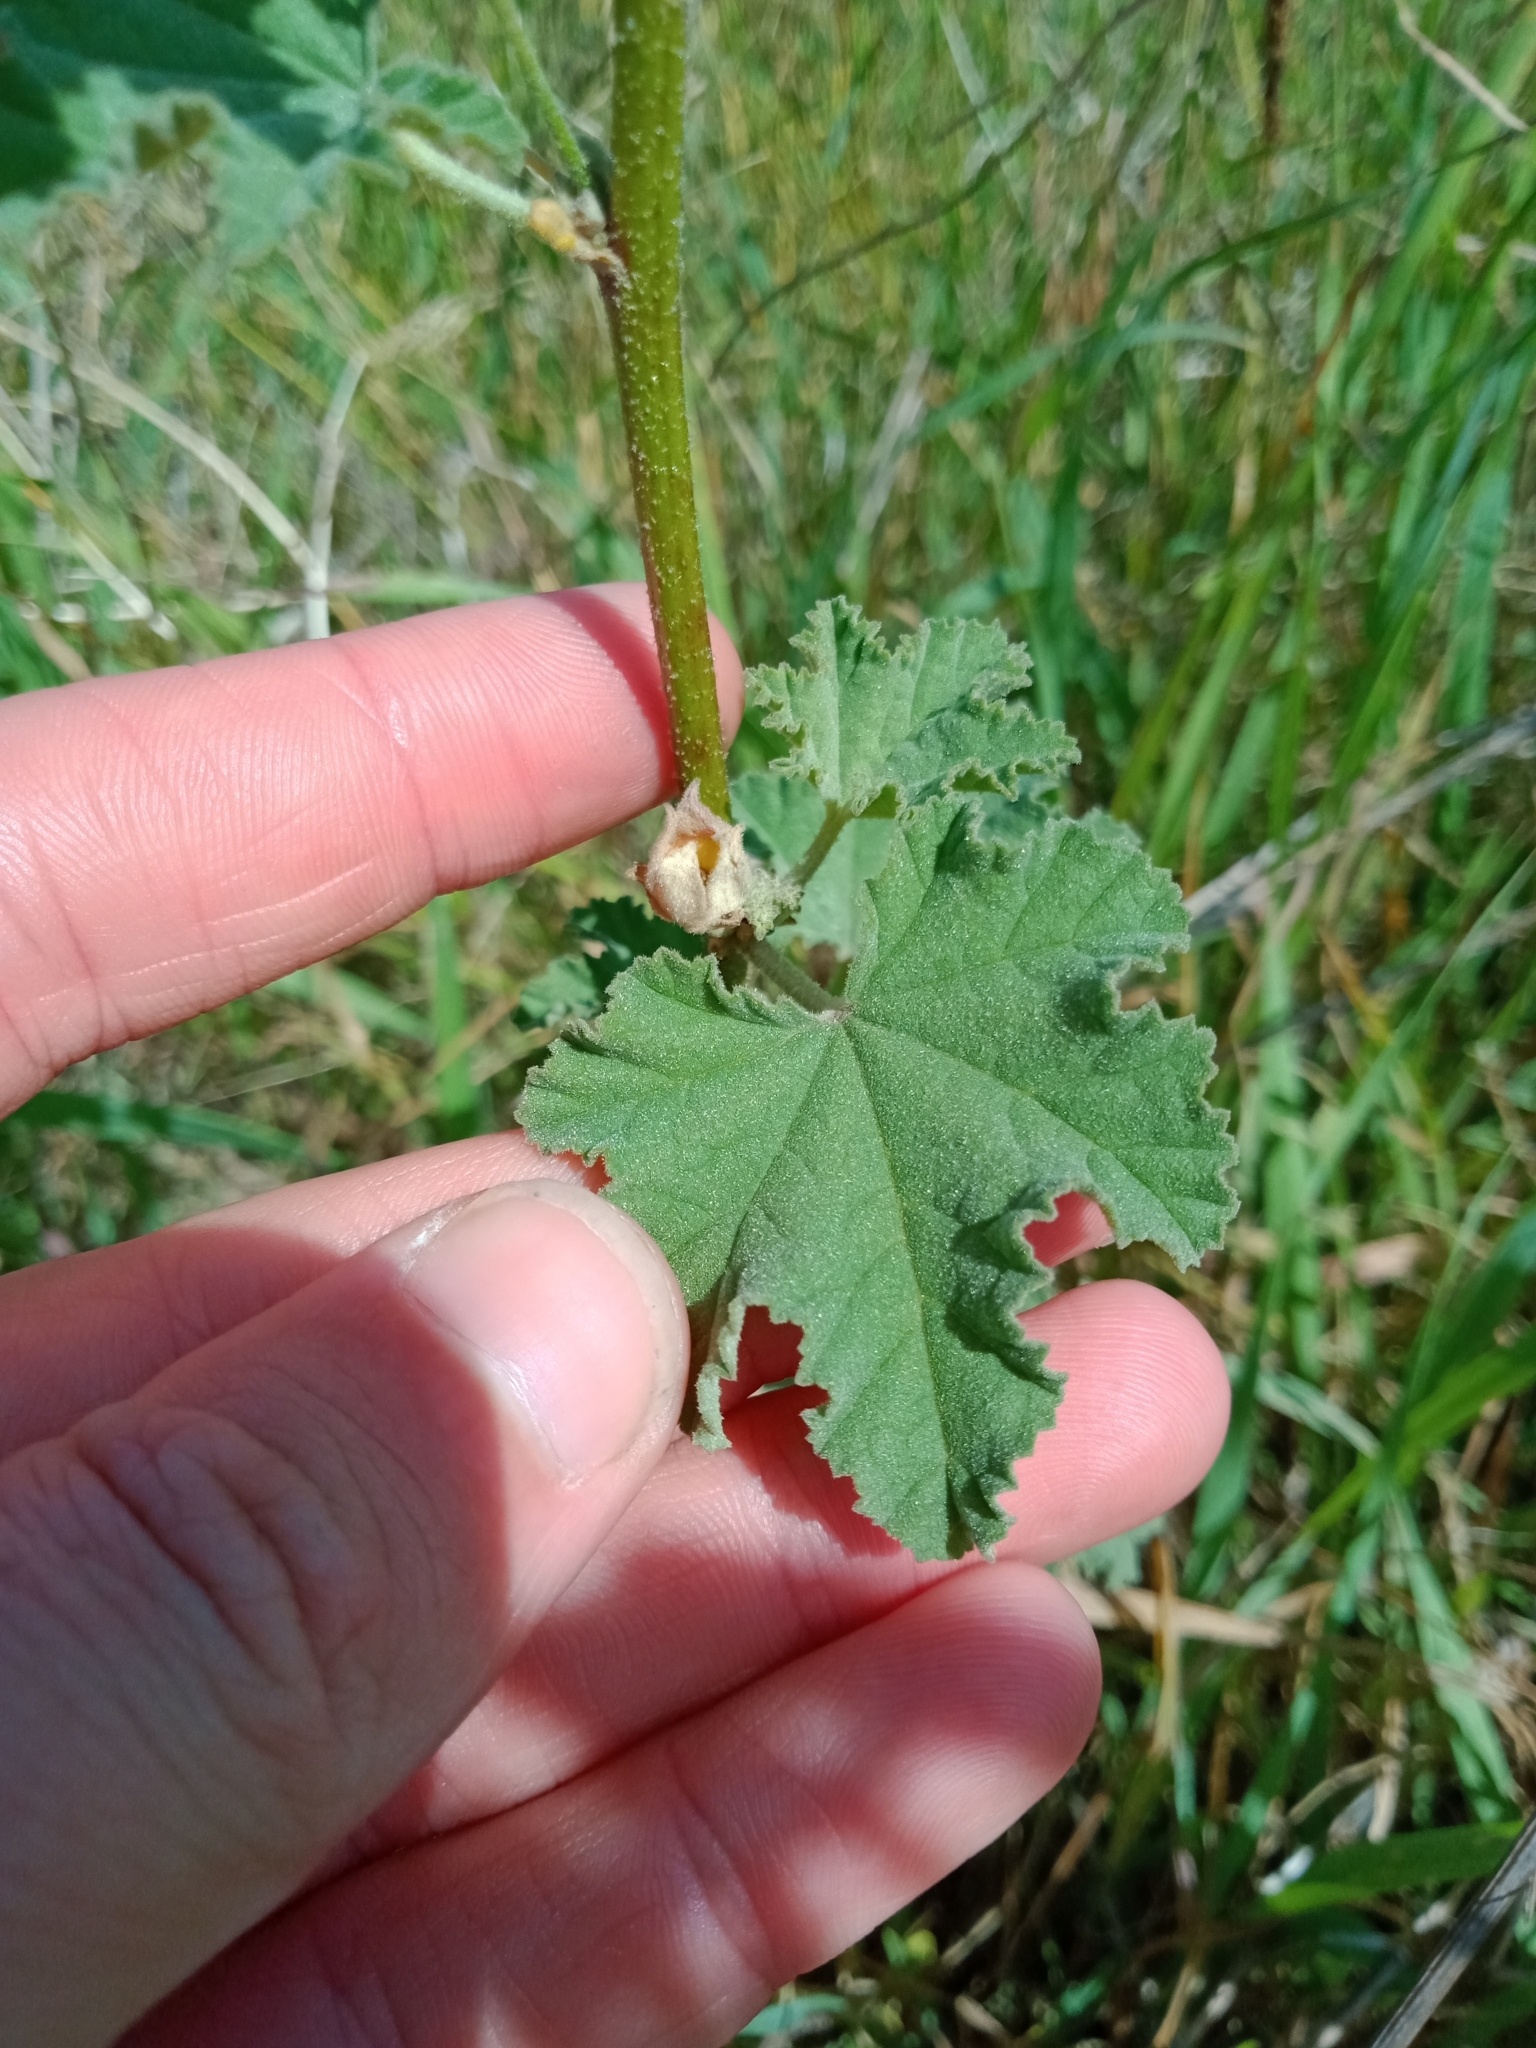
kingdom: Plantae
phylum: Tracheophyta
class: Magnoliopsida
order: Malvales
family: Malvaceae
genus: Malva
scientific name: Malva preissiana
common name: Australian-hollyhock
